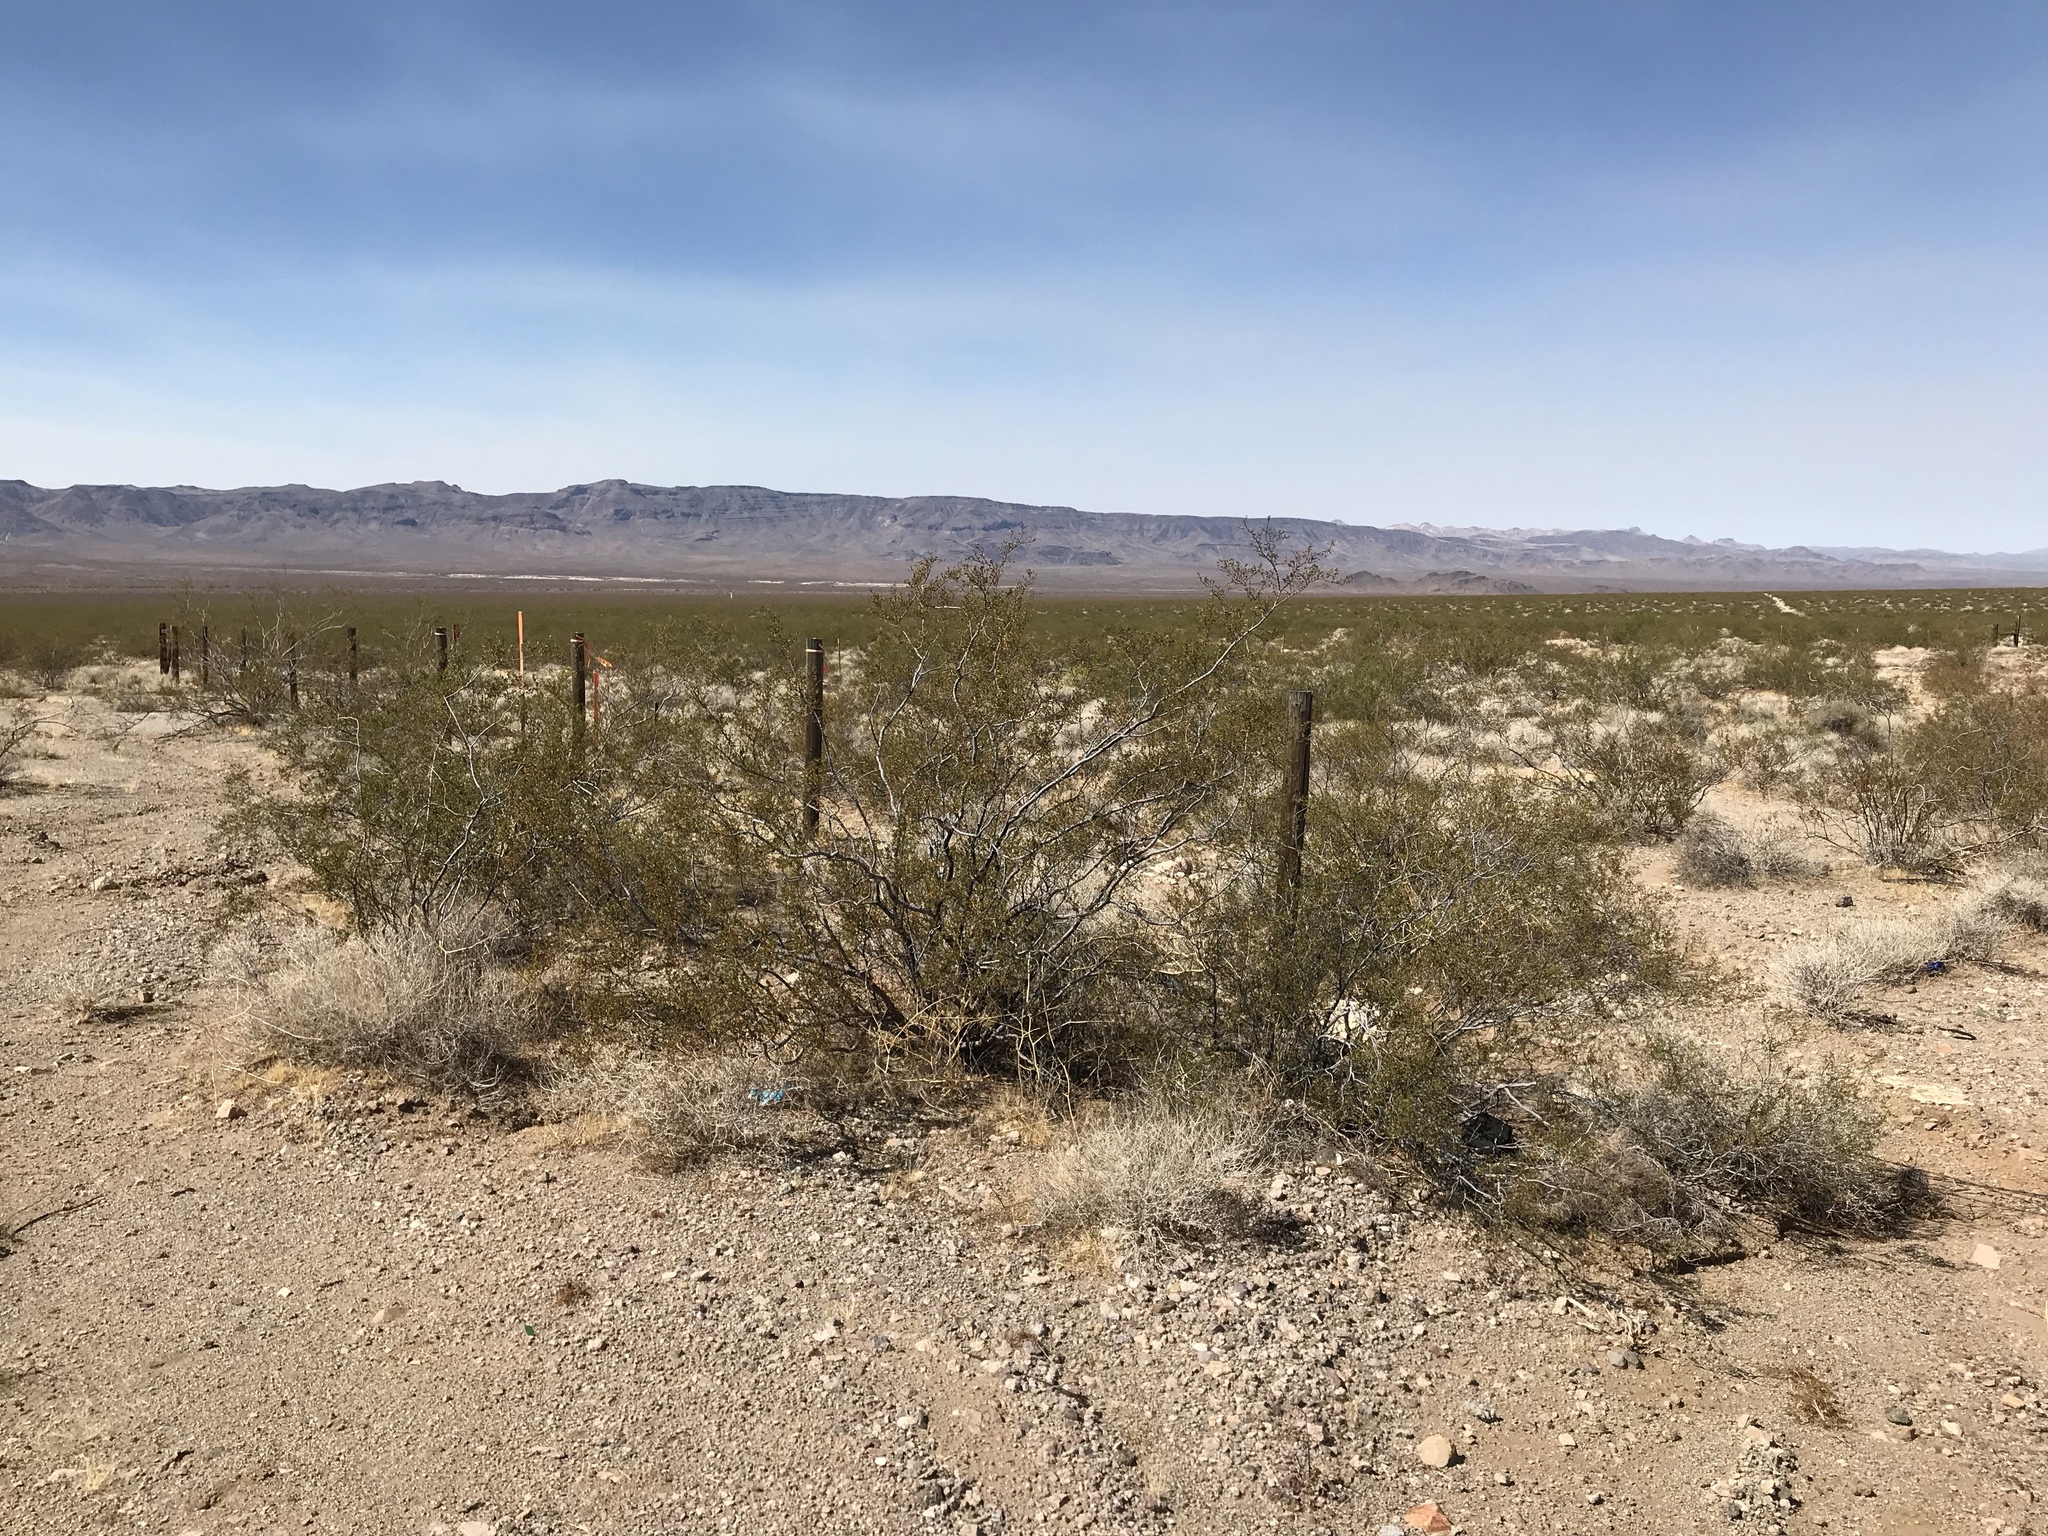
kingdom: Plantae
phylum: Tracheophyta
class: Magnoliopsida
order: Zygophyllales
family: Zygophyllaceae
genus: Larrea
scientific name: Larrea tridentata
